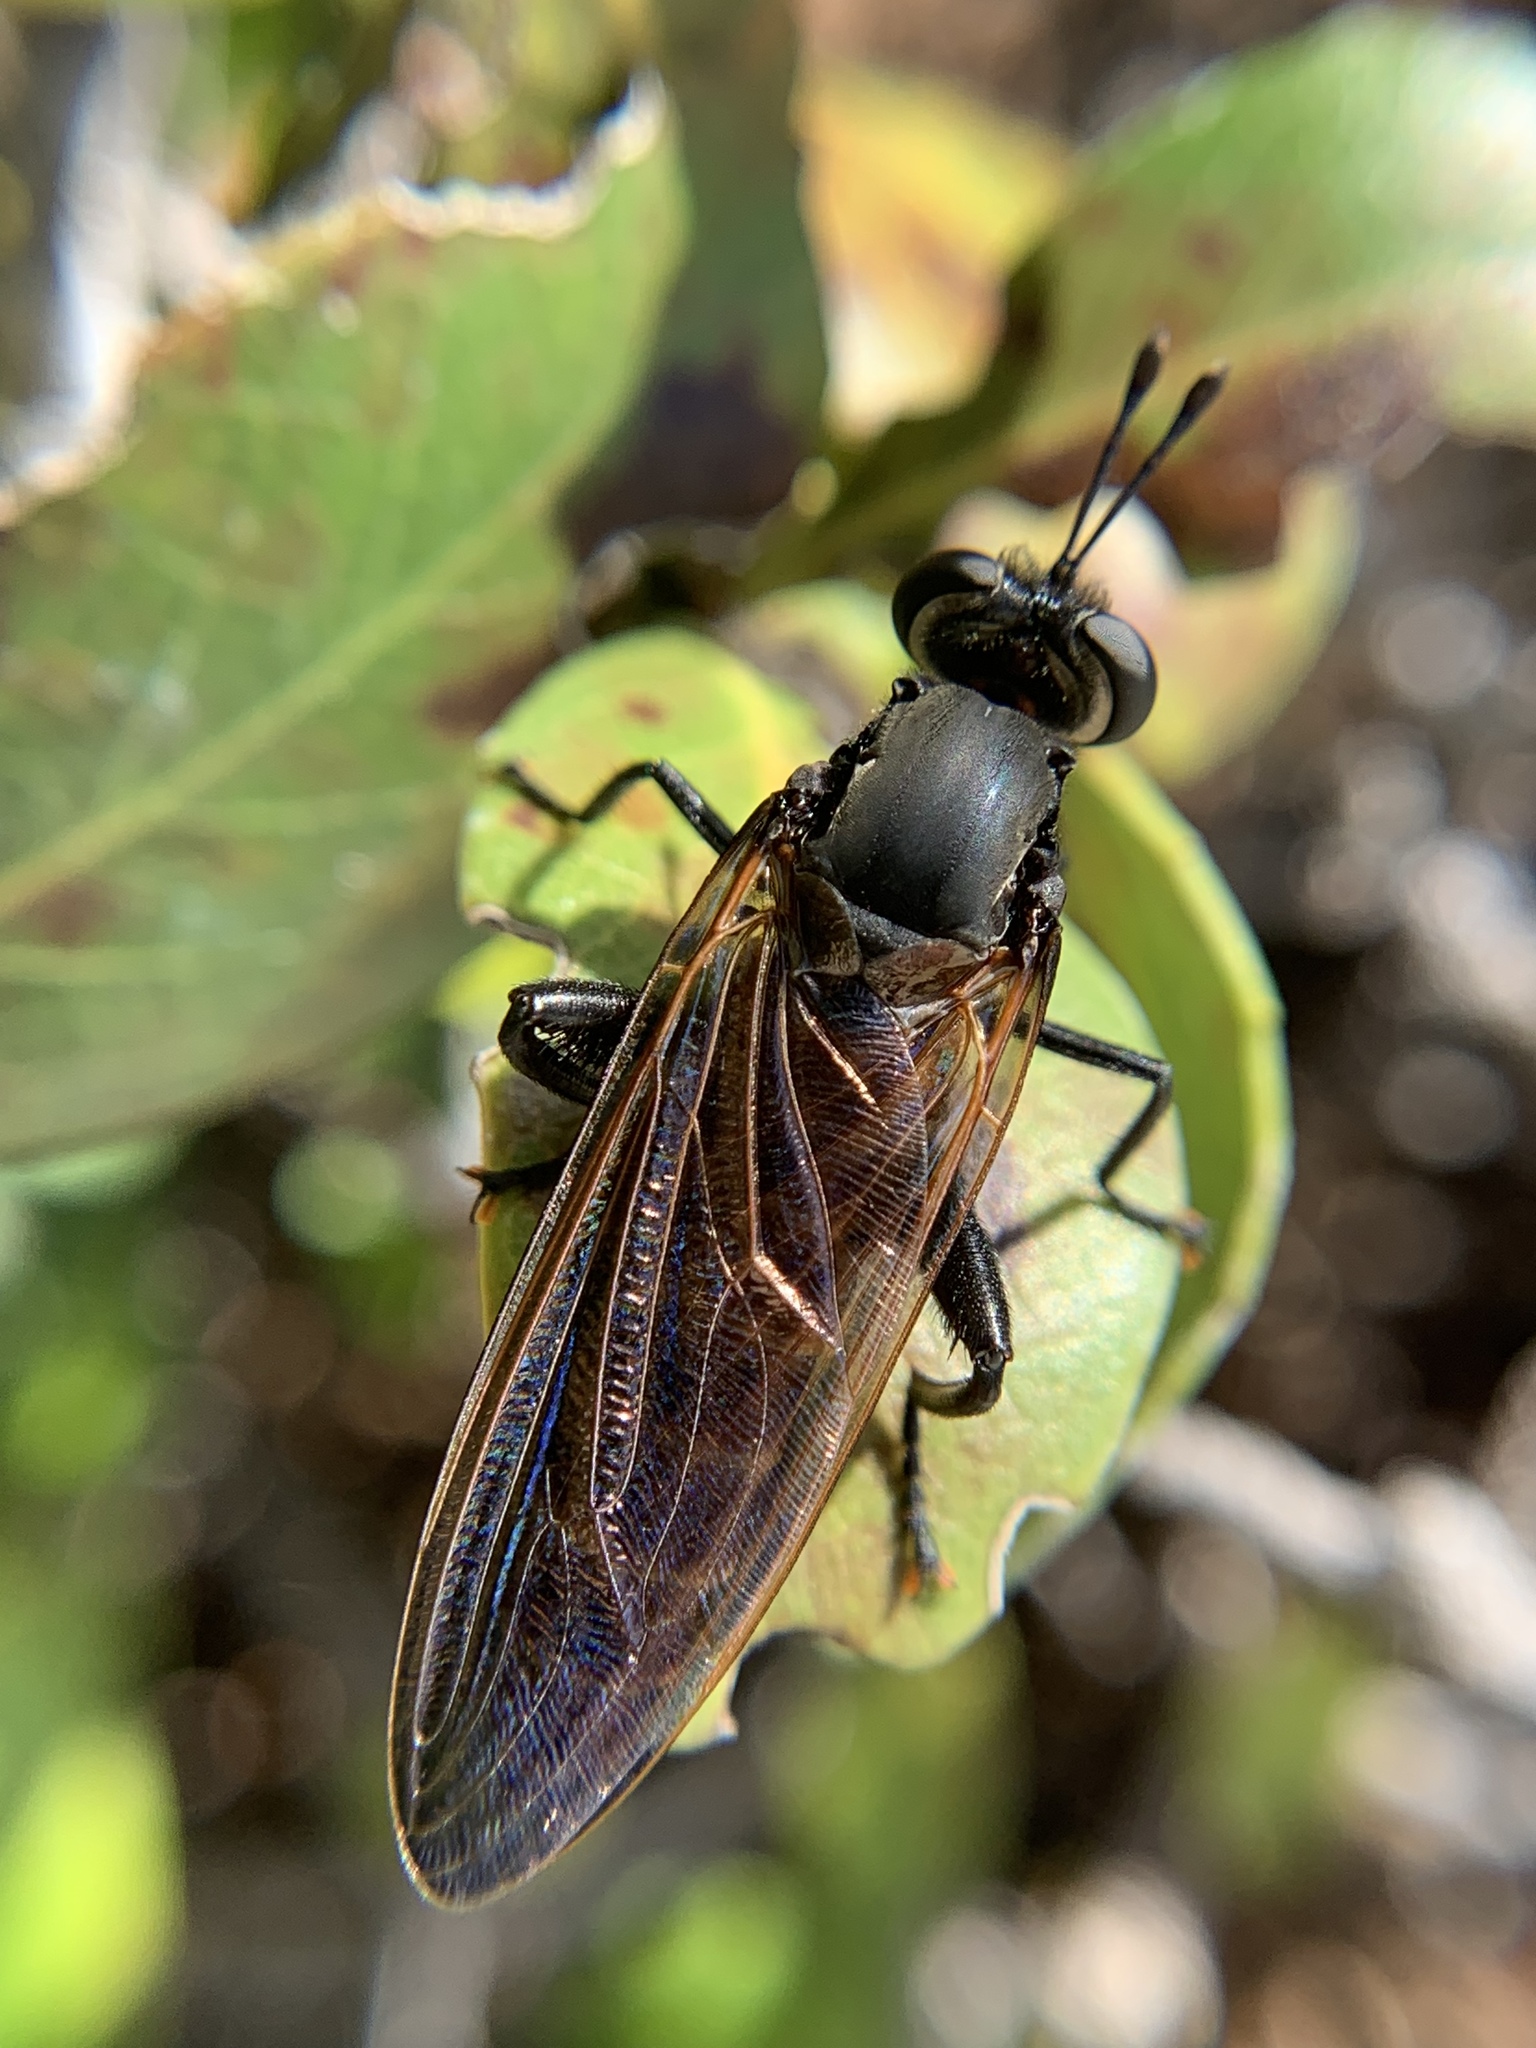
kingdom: Animalia
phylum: Arthropoda
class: Insecta
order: Diptera
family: Mydidae
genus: Mydas
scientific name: Mydas maculiventris
